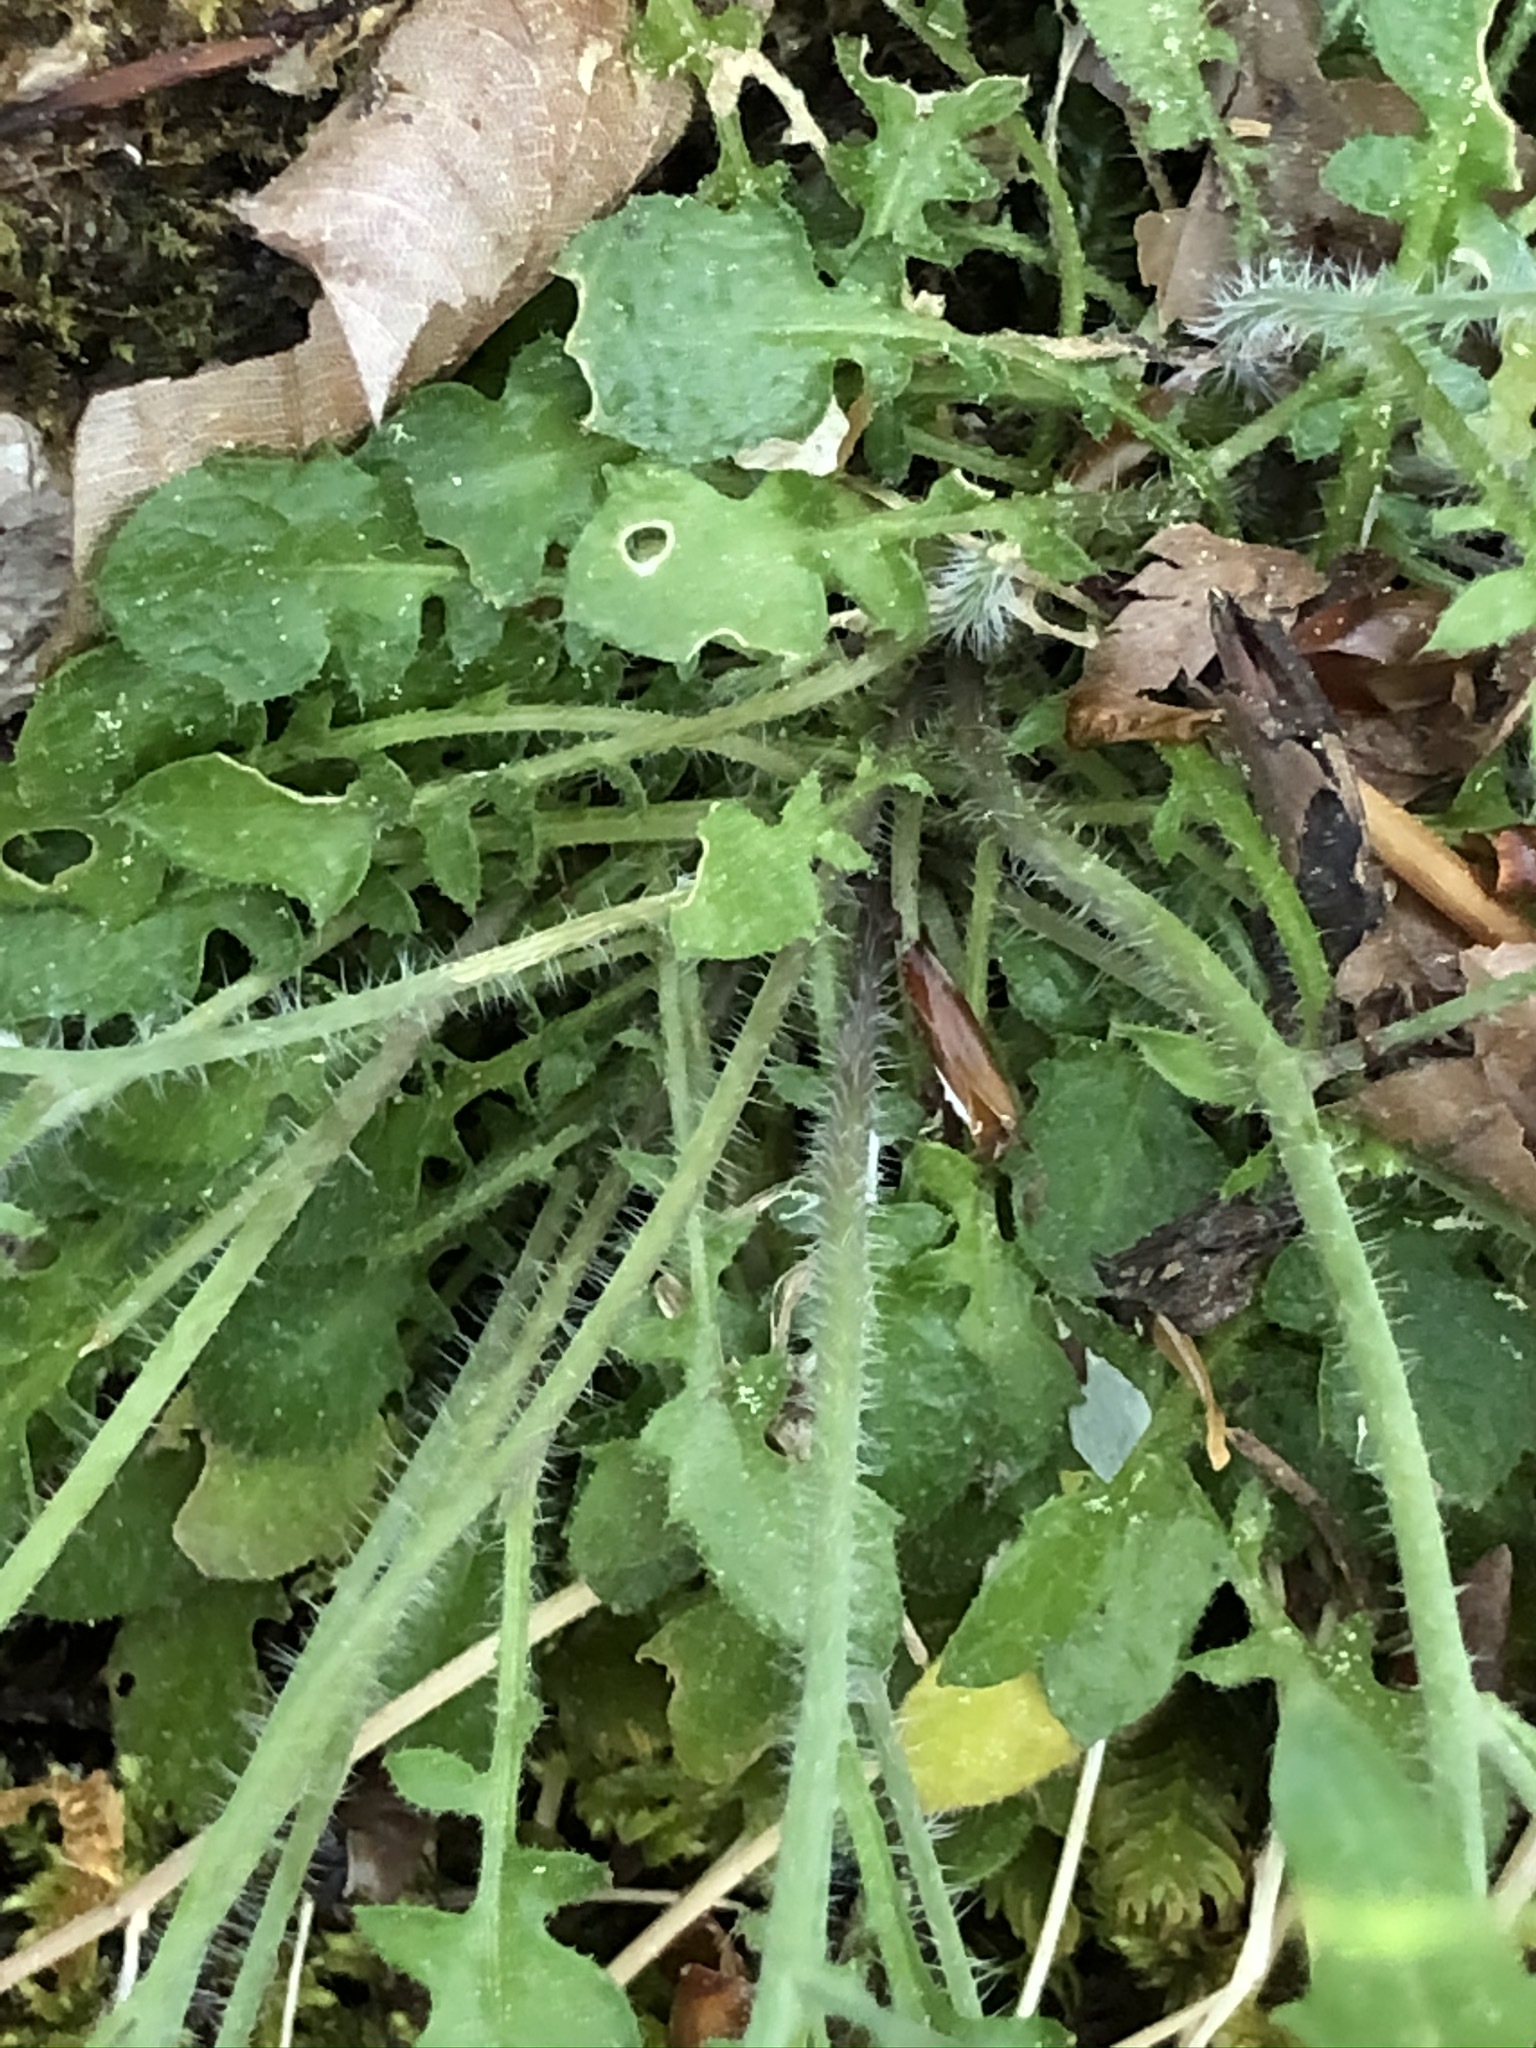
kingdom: Plantae
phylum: Tracheophyta
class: Magnoliopsida
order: Brassicales
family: Brassicaceae
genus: Arabidopsis
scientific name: Arabidopsis arenosa
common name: Sand rock-cress
